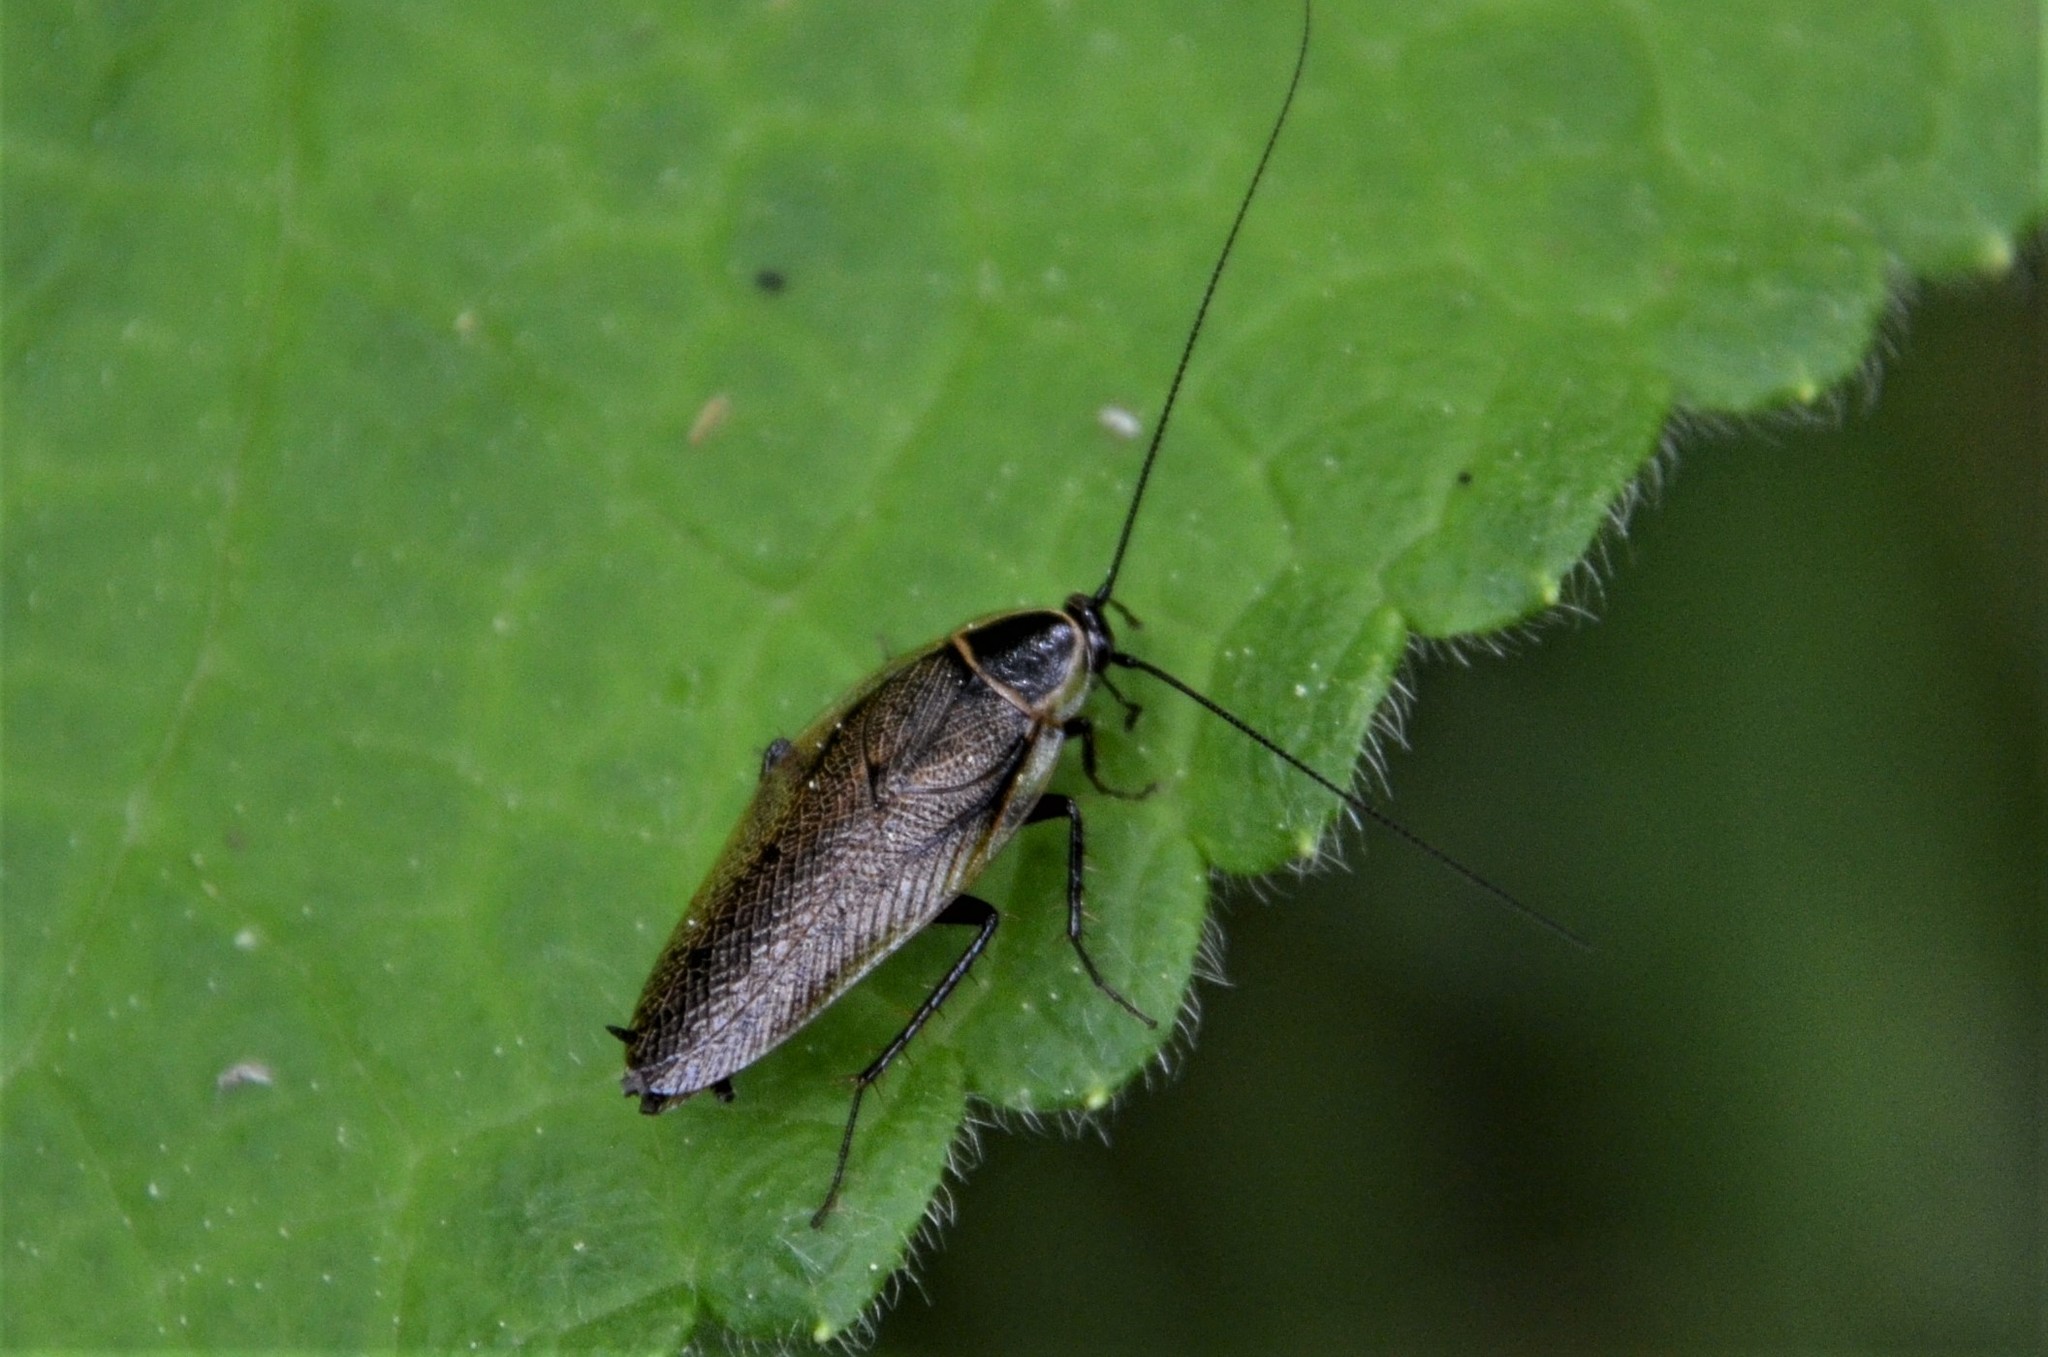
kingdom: Animalia
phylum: Arthropoda
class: Insecta
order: Blattodea
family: Ectobiidae
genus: Ectobius
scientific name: Ectobius sylvestris
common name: Forest cockroach
